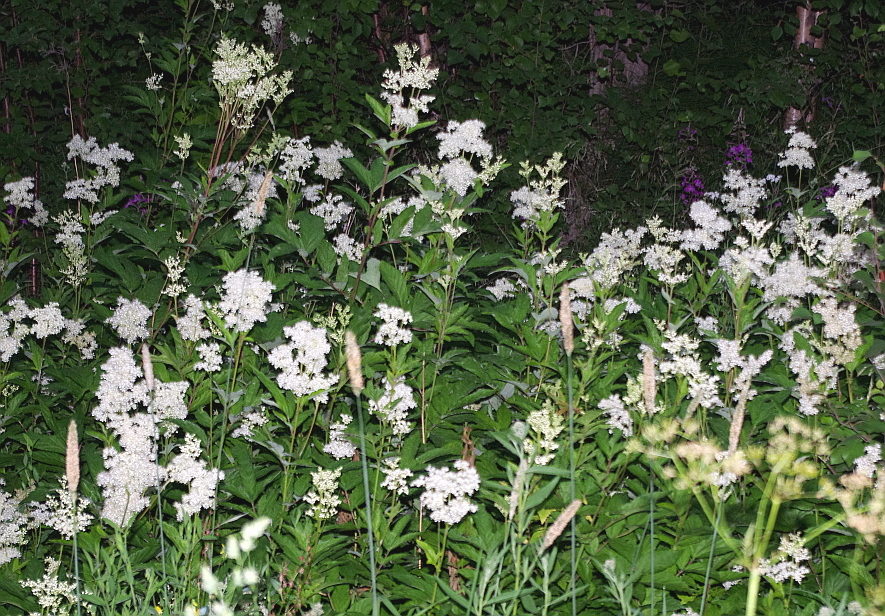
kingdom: Plantae
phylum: Tracheophyta
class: Magnoliopsida
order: Rosales
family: Rosaceae
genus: Filipendula
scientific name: Filipendula ulmaria
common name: Meadowsweet
